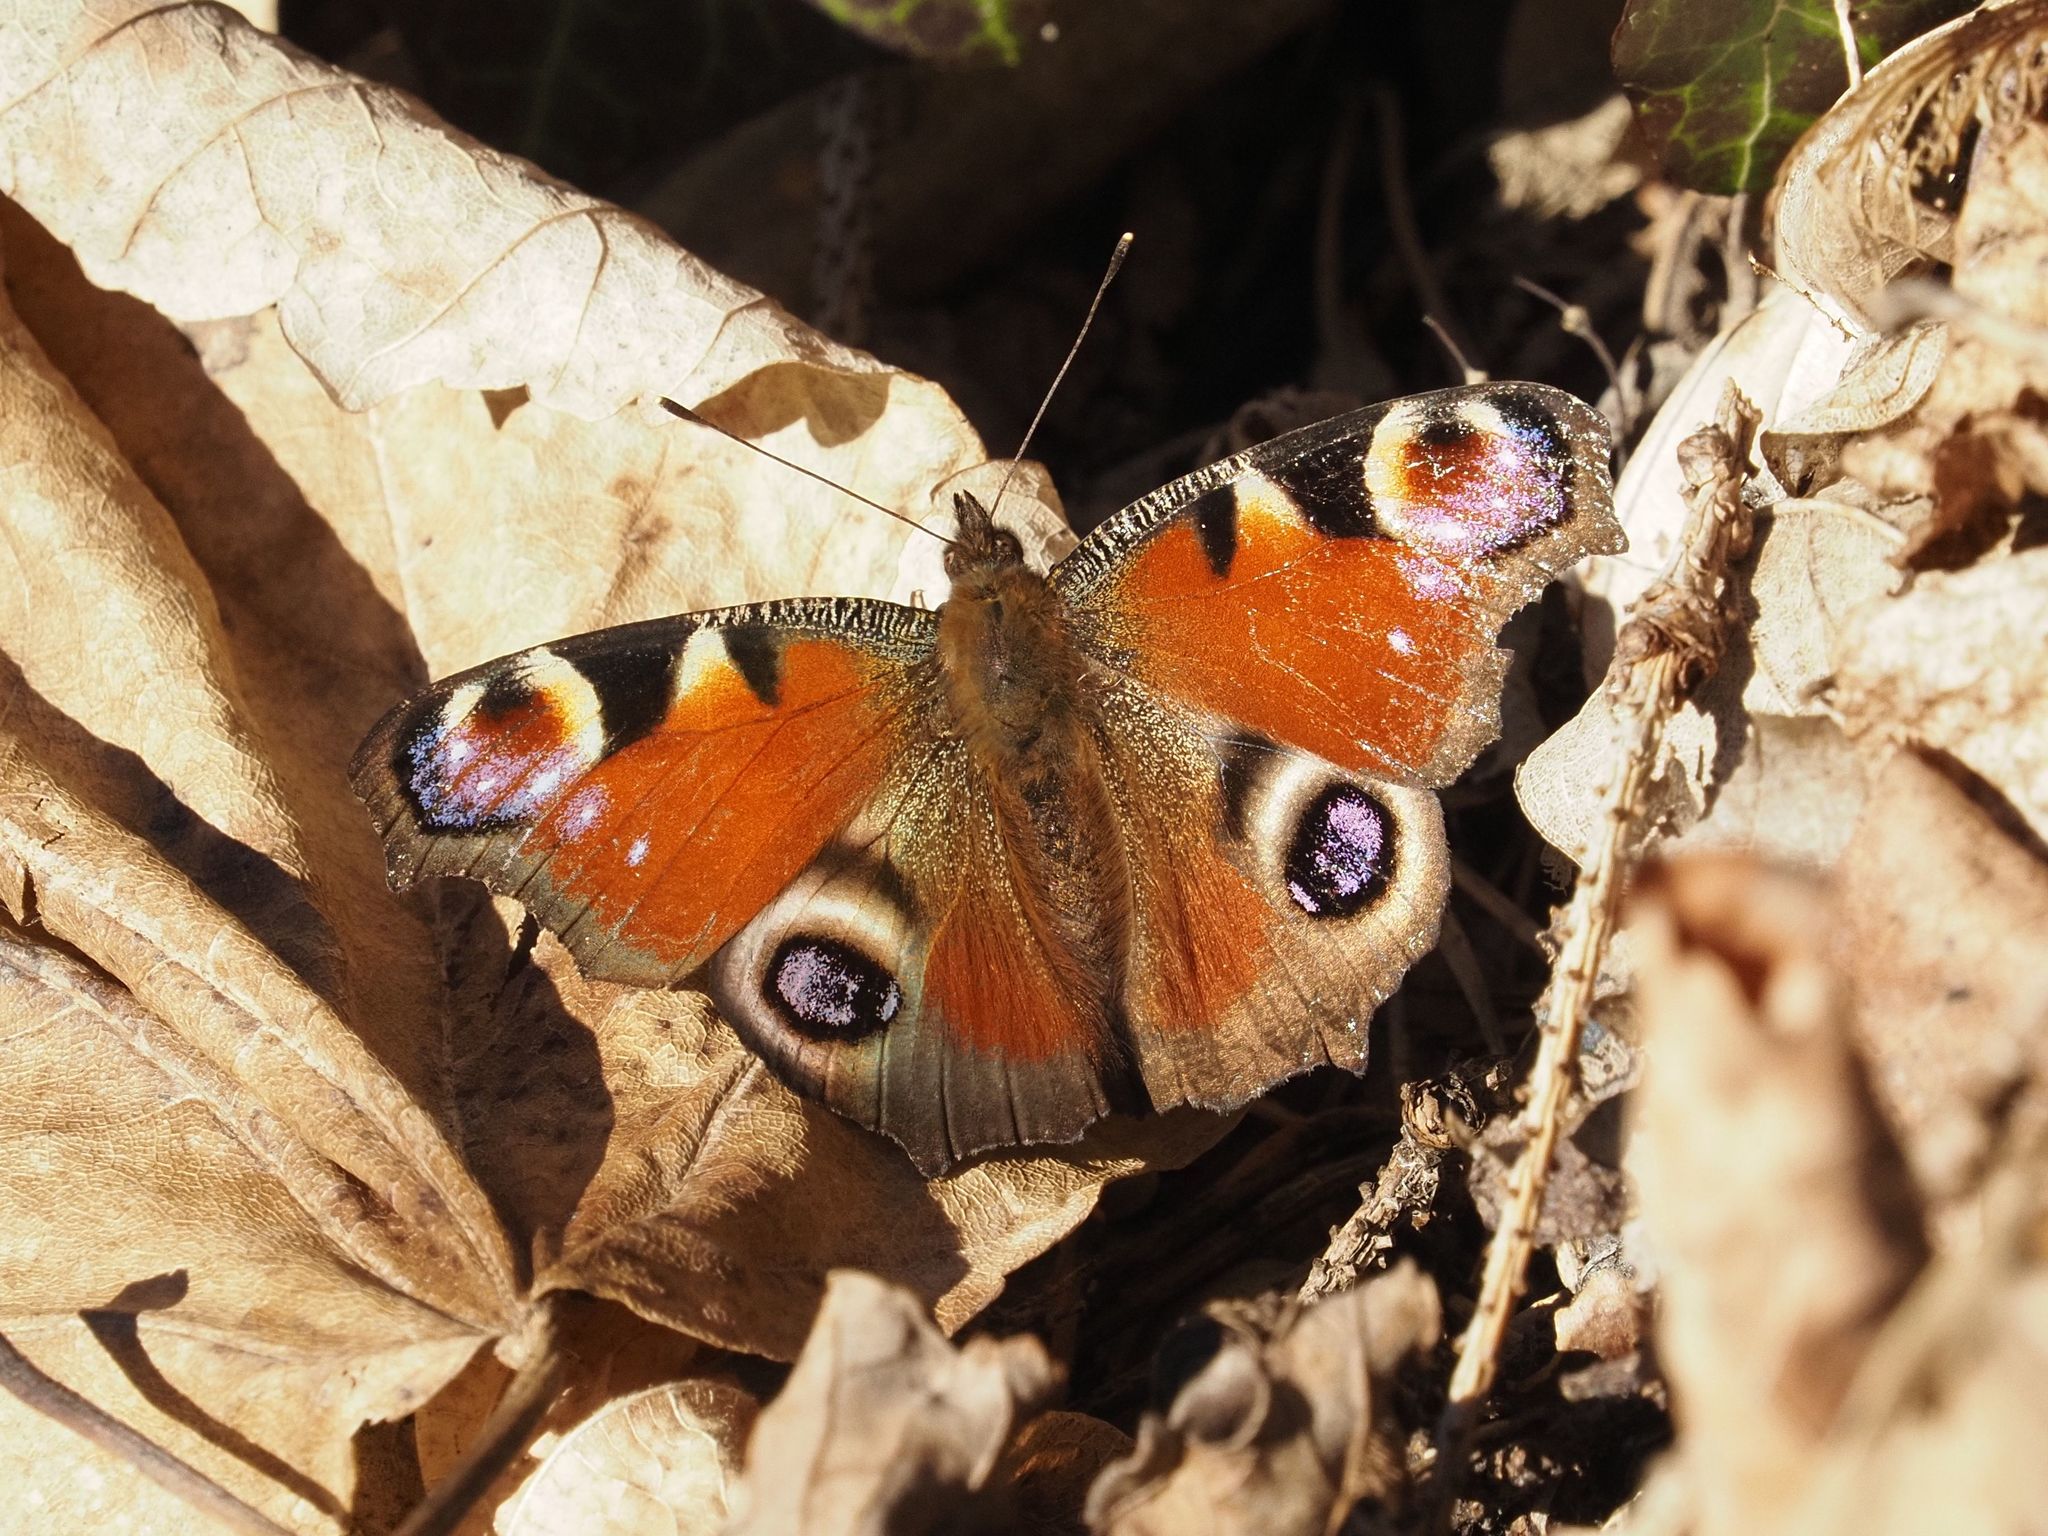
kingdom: Animalia
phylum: Arthropoda
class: Insecta
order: Lepidoptera
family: Nymphalidae
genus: Aglais
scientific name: Aglais io
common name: Peacock
